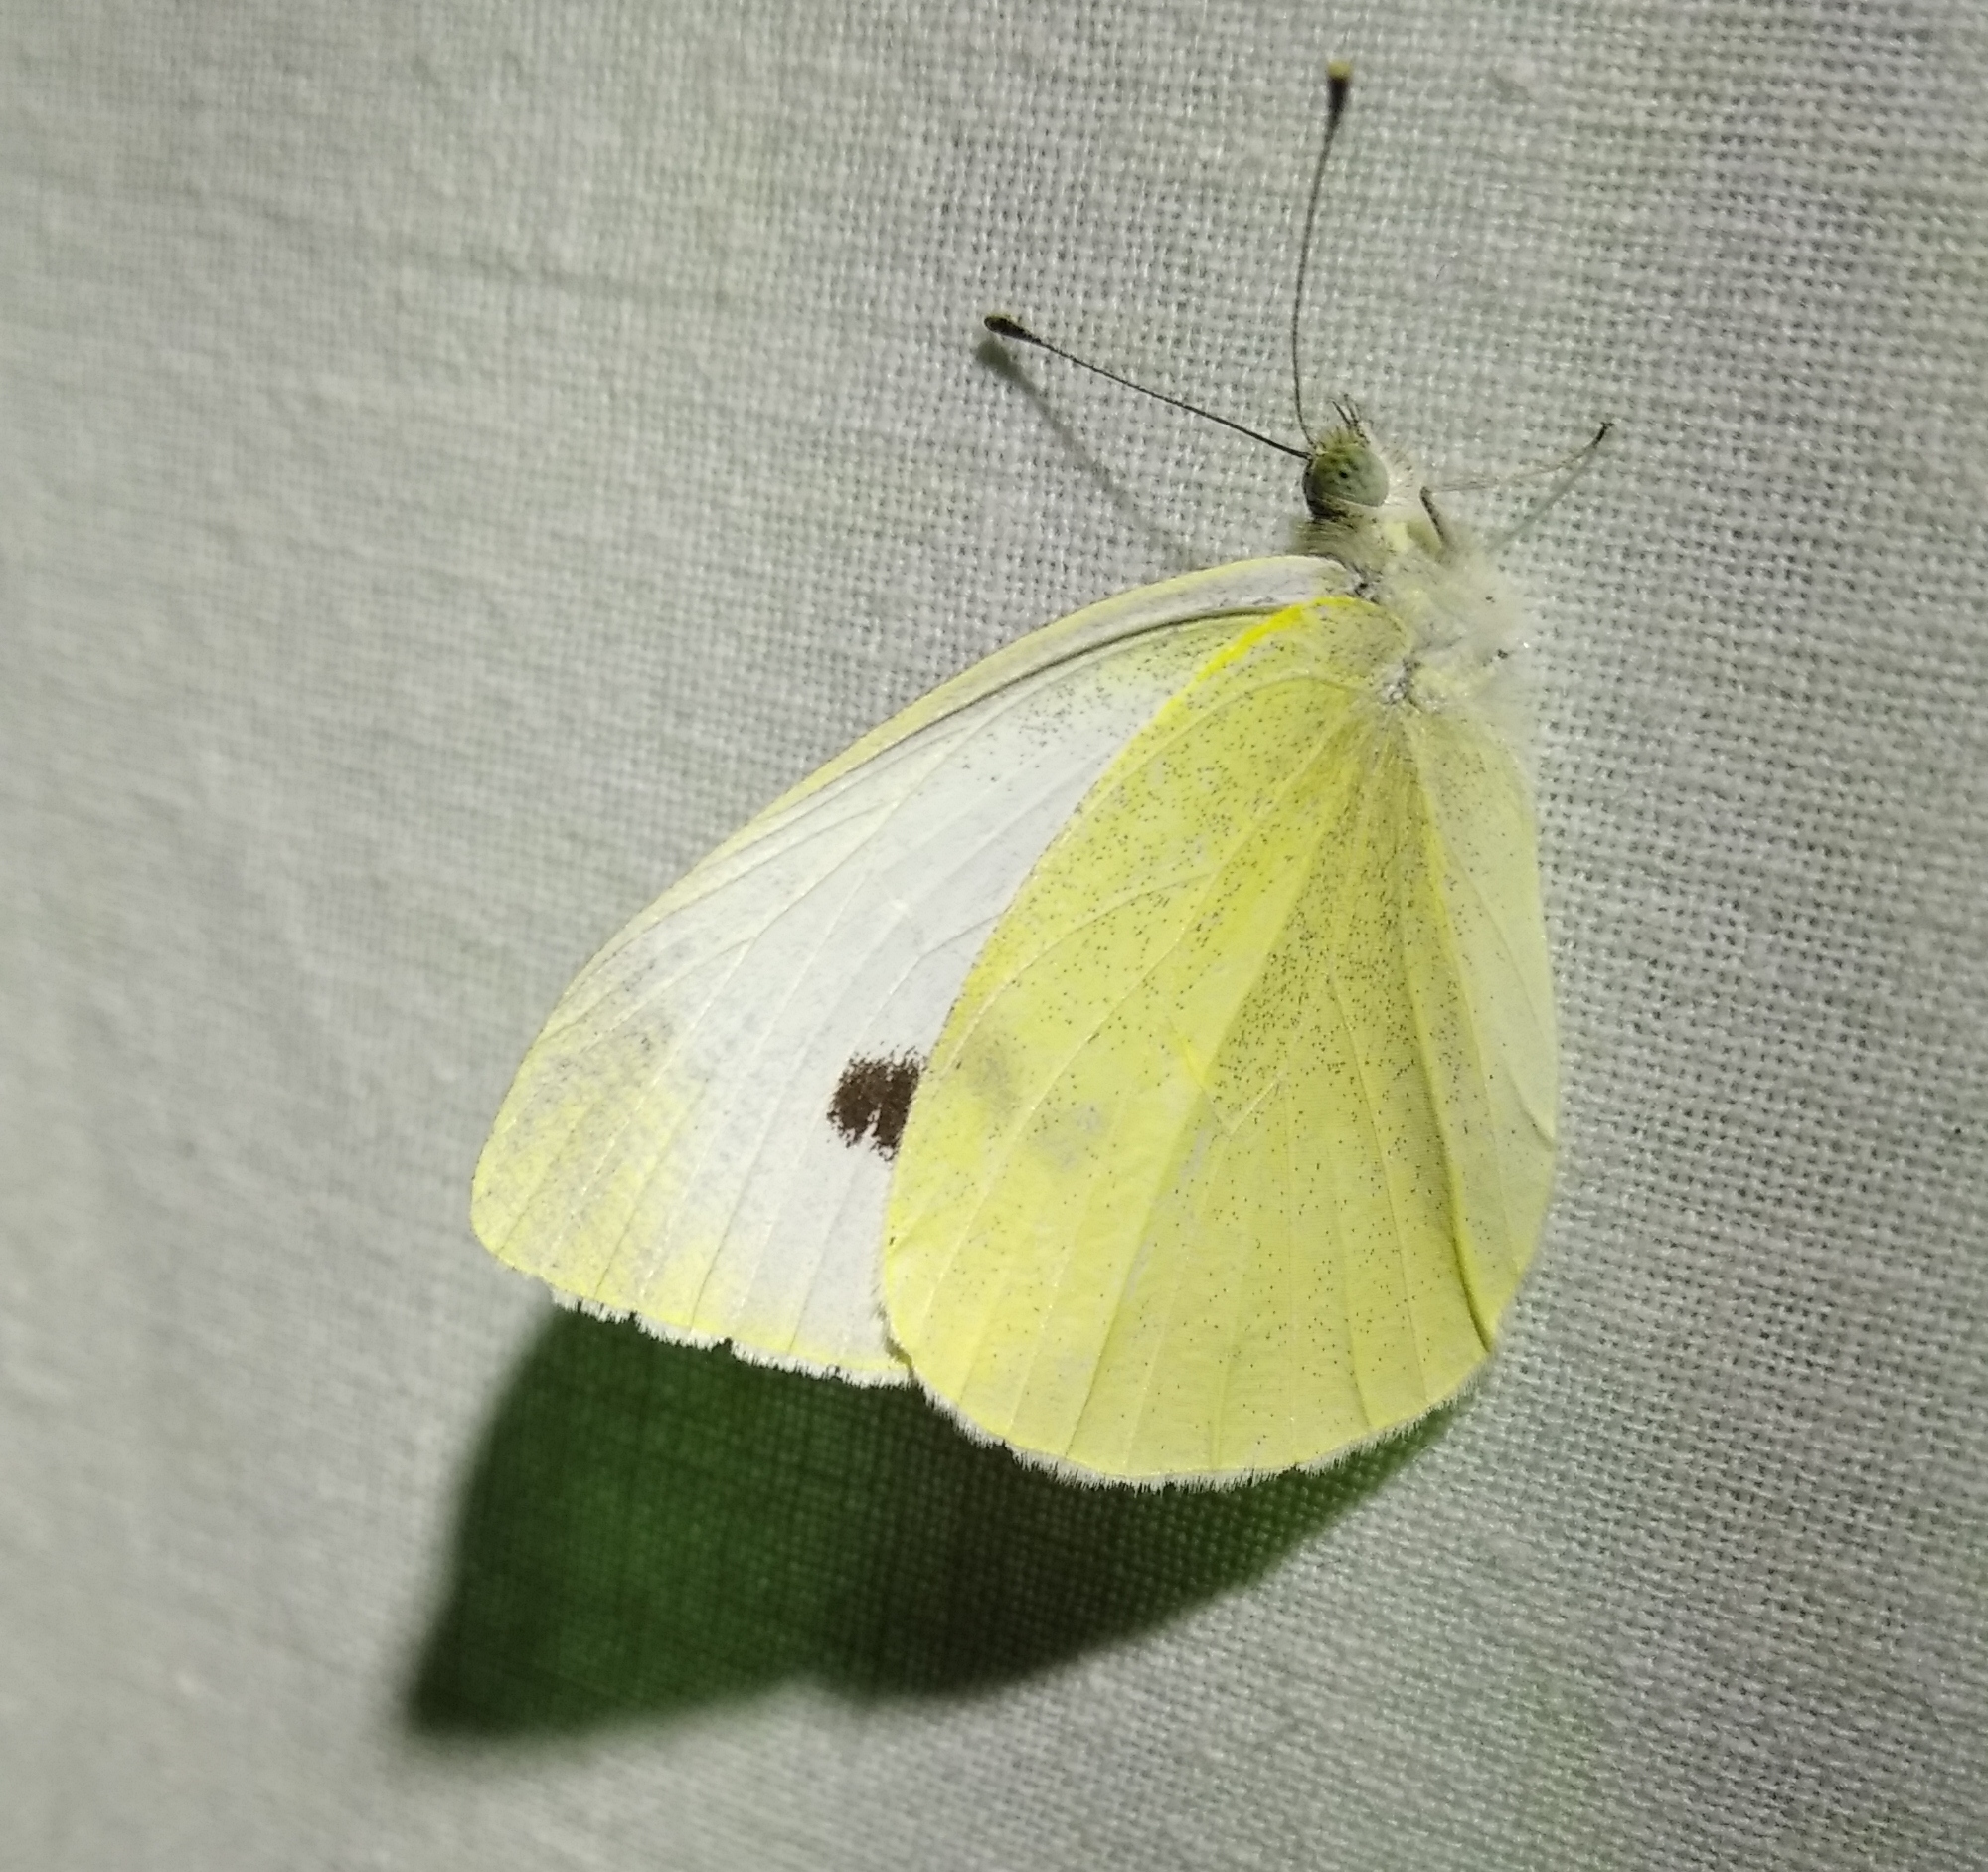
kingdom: Animalia
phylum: Arthropoda
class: Insecta
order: Lepidoptera
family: Pieridae
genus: Pieris
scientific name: Pieris rapae
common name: Small white
